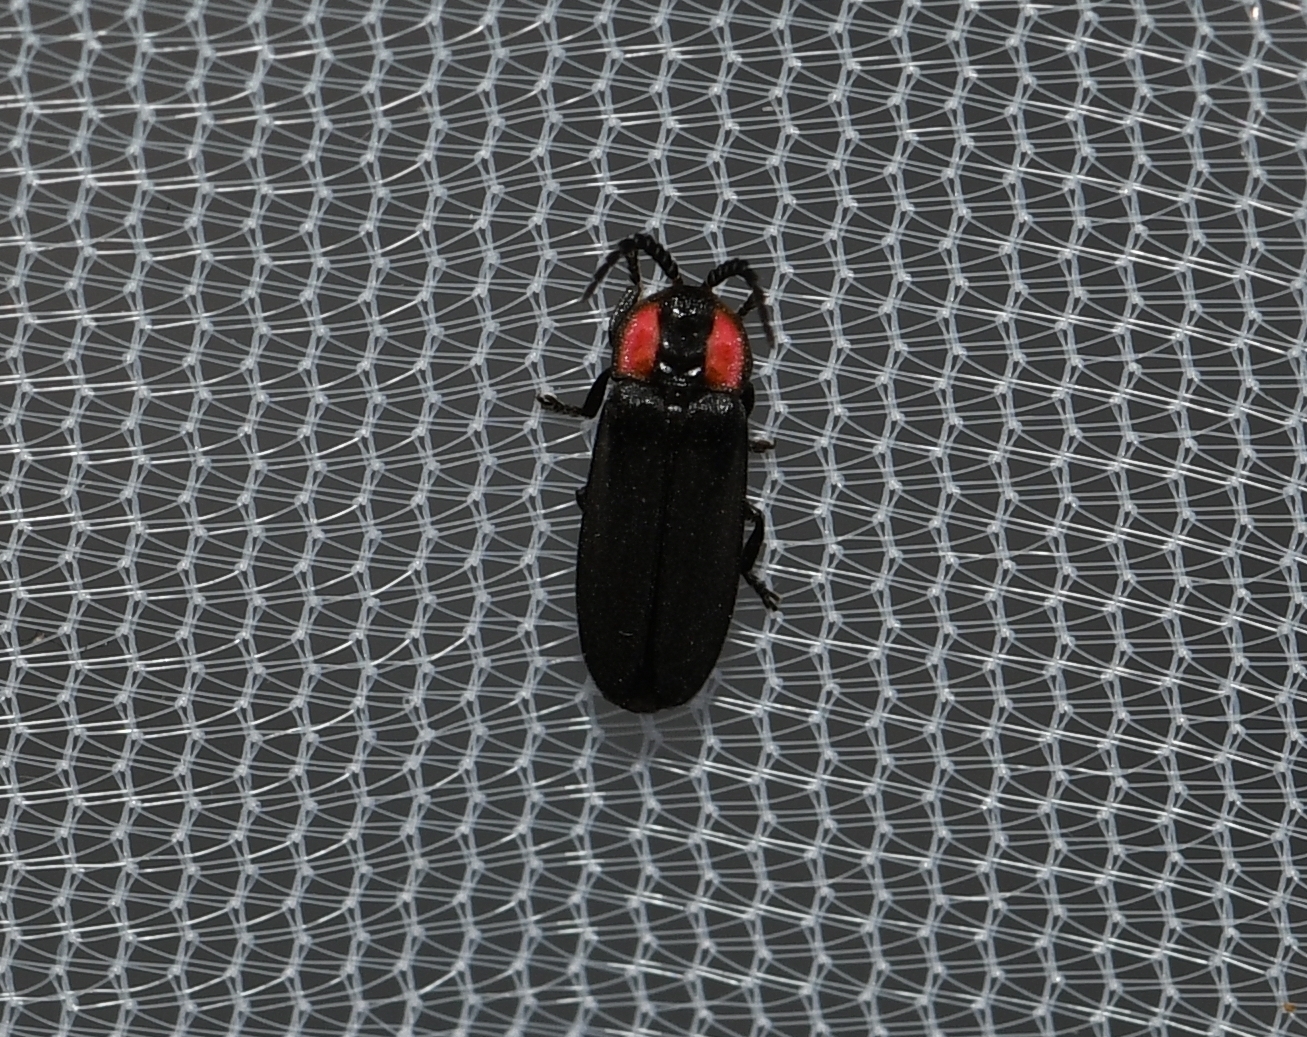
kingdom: Animalia
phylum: Arthropoda
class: Insecta
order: Coleoptera
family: Lampyridae
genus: Pyropyga
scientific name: Pyropyga nigricans
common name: Dark firefly
